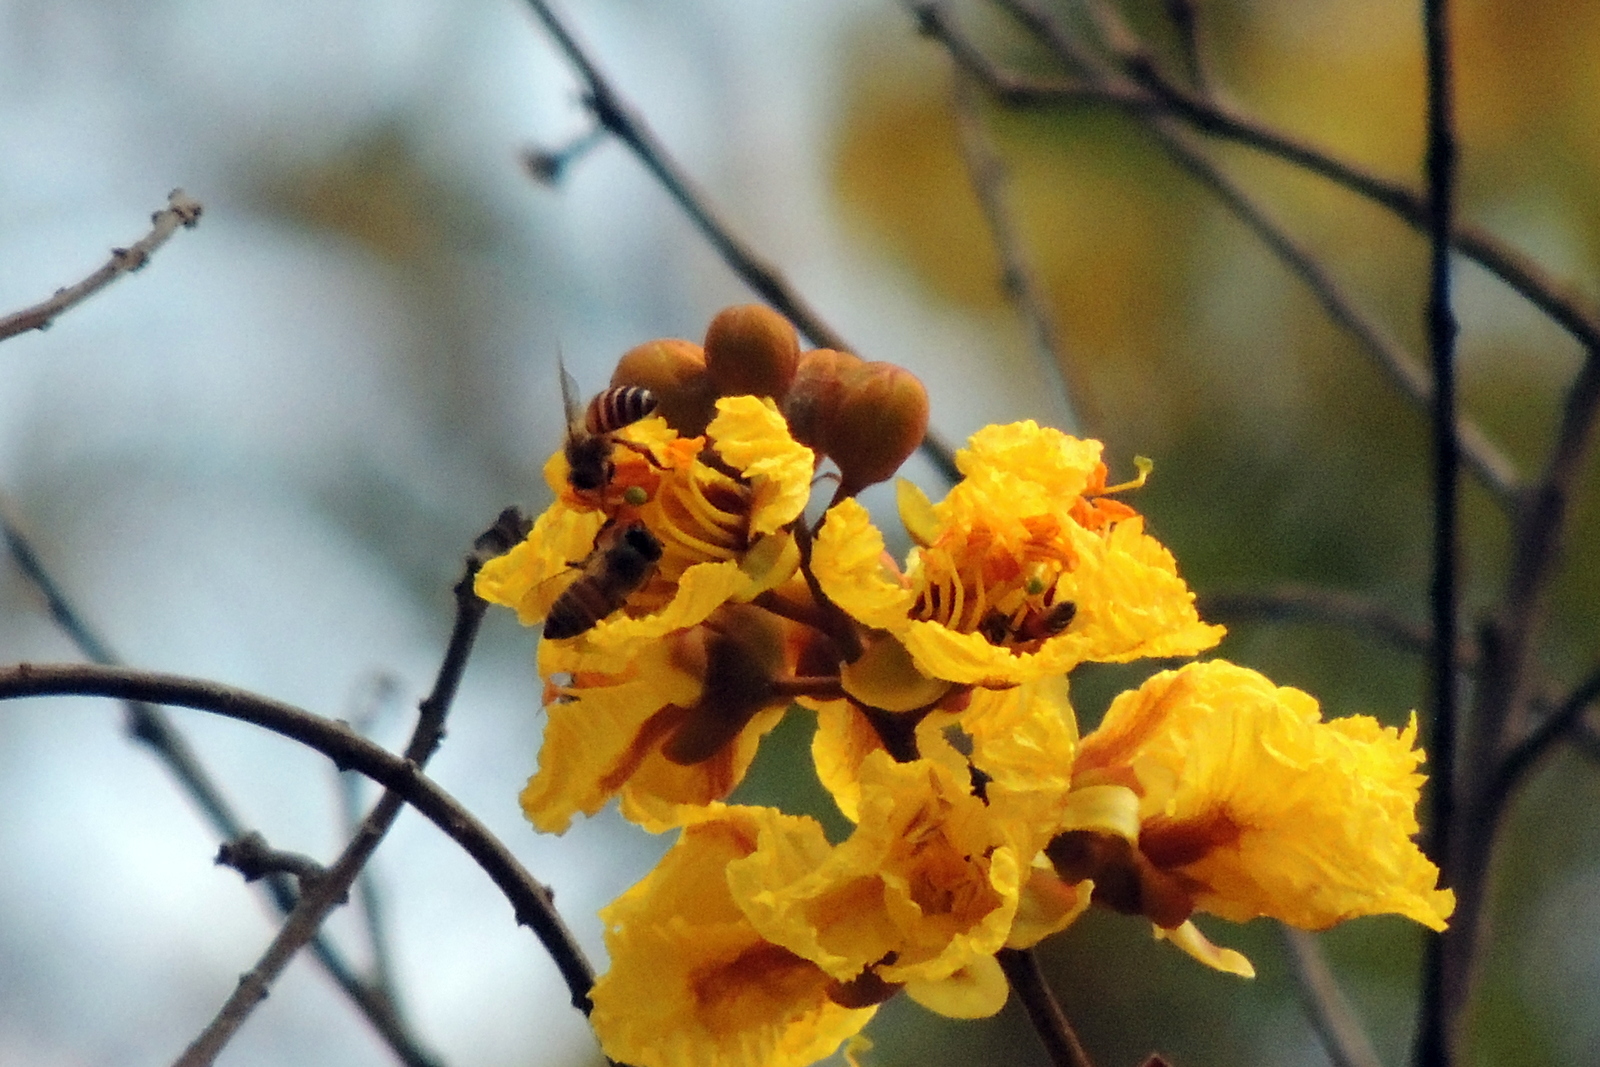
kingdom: Animalia
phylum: Arthropoda
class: Insecta
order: Hymenoptera
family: Apidae
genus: Apis
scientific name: Apis cerana
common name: Honey bee
